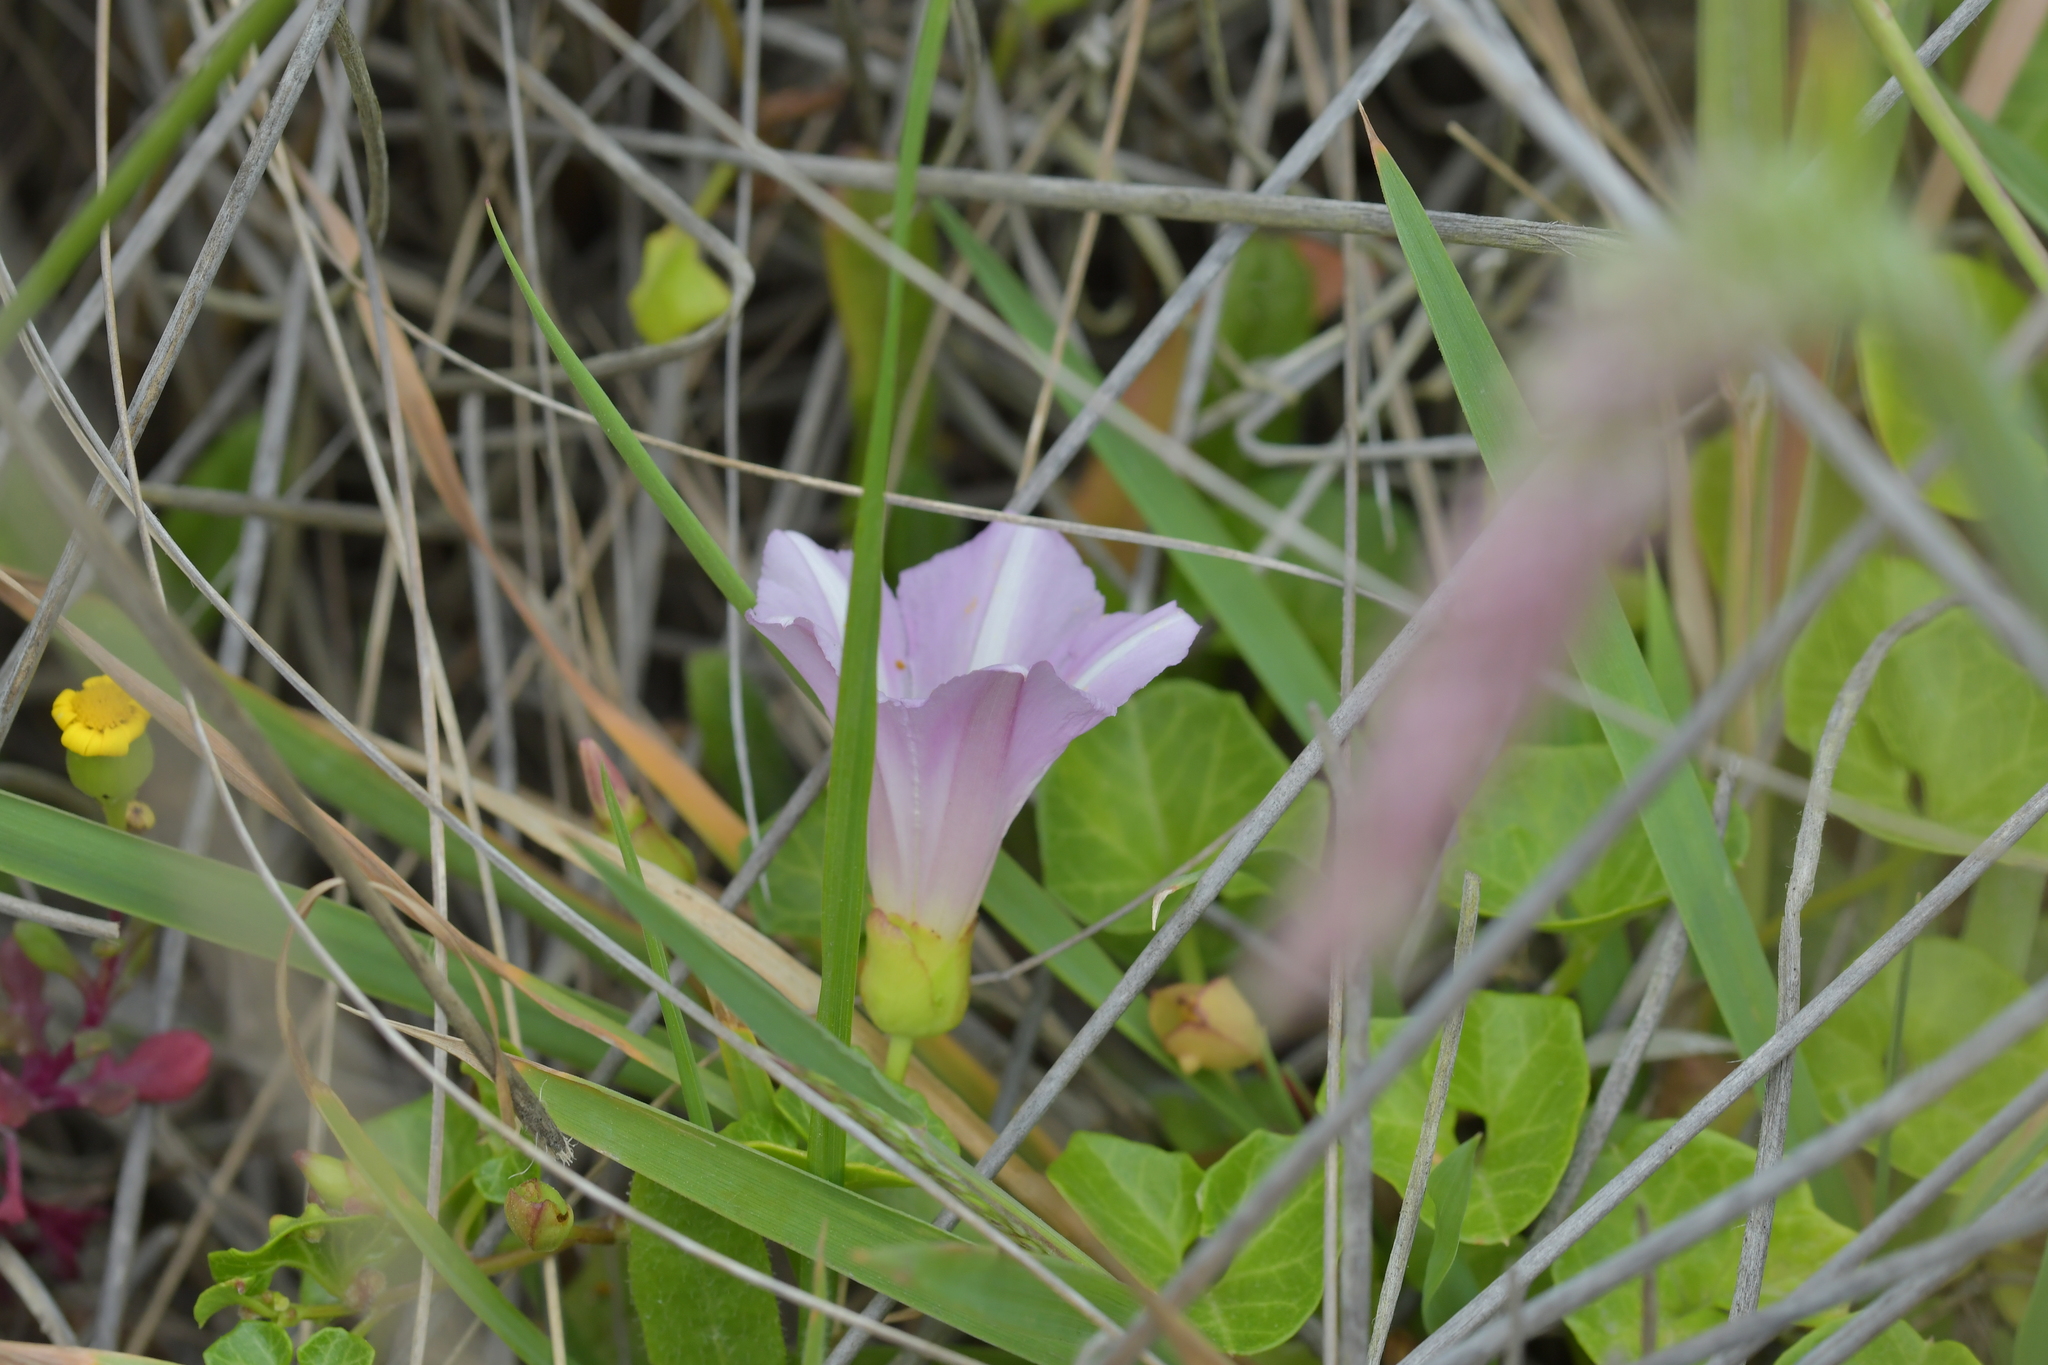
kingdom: Plantae
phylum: Tracheophyta
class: Magnoliopsida
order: Solanales
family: Convolvulaceae
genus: Calystegia
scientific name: Calystegia soldanella
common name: Sea bindweed
